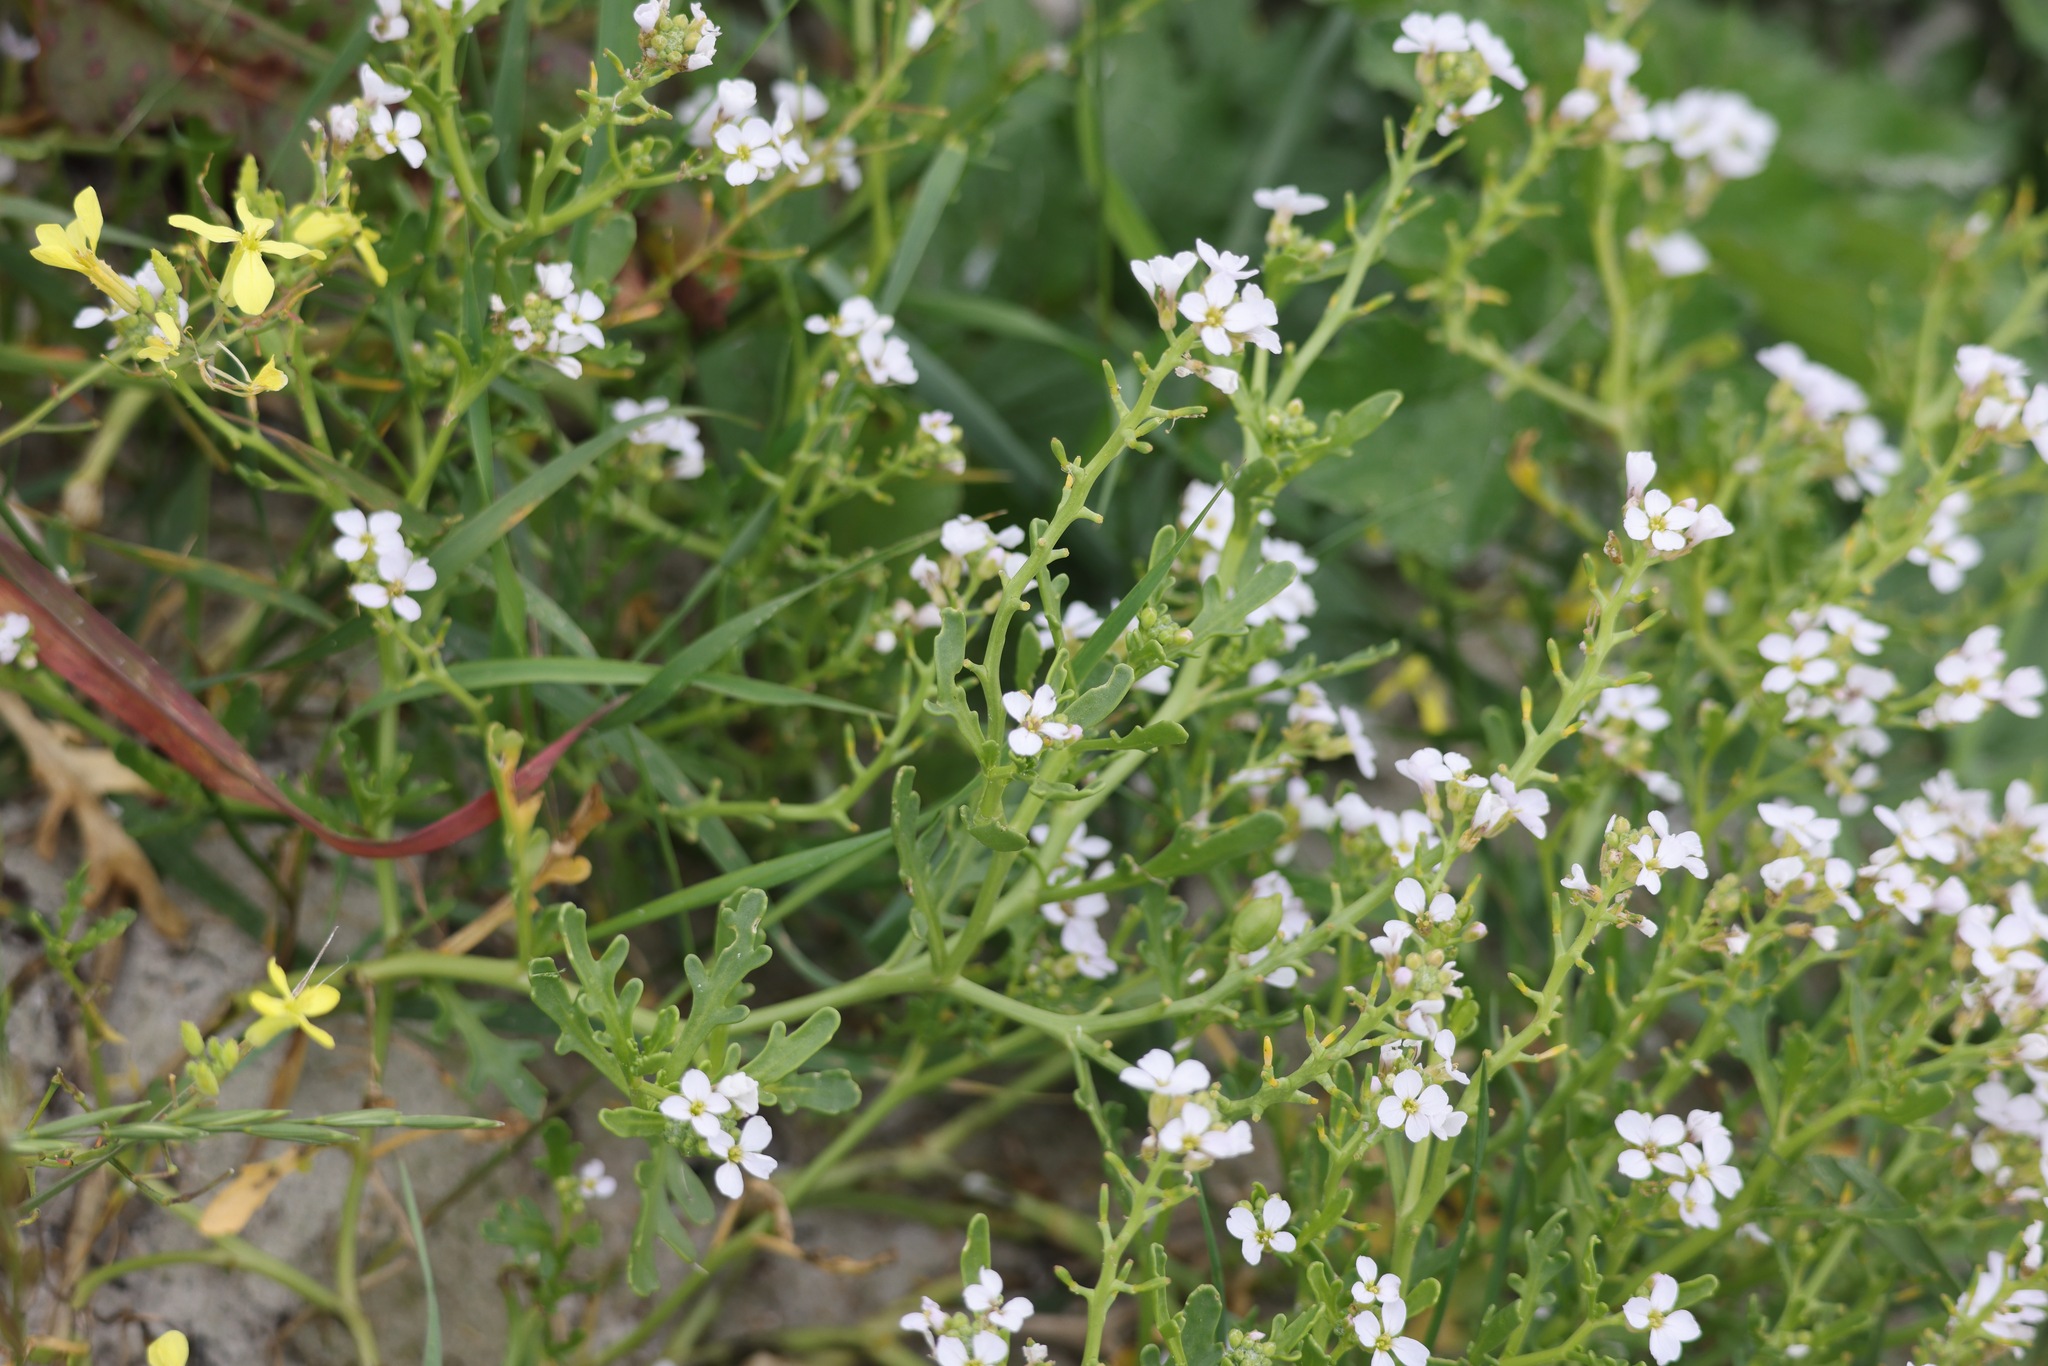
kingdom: Plantae
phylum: Tracheophyta
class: Magnoliopsida
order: Brassicales
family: Brassicaceae
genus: Cakile
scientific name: Cakile maritima
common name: Sea rocket
